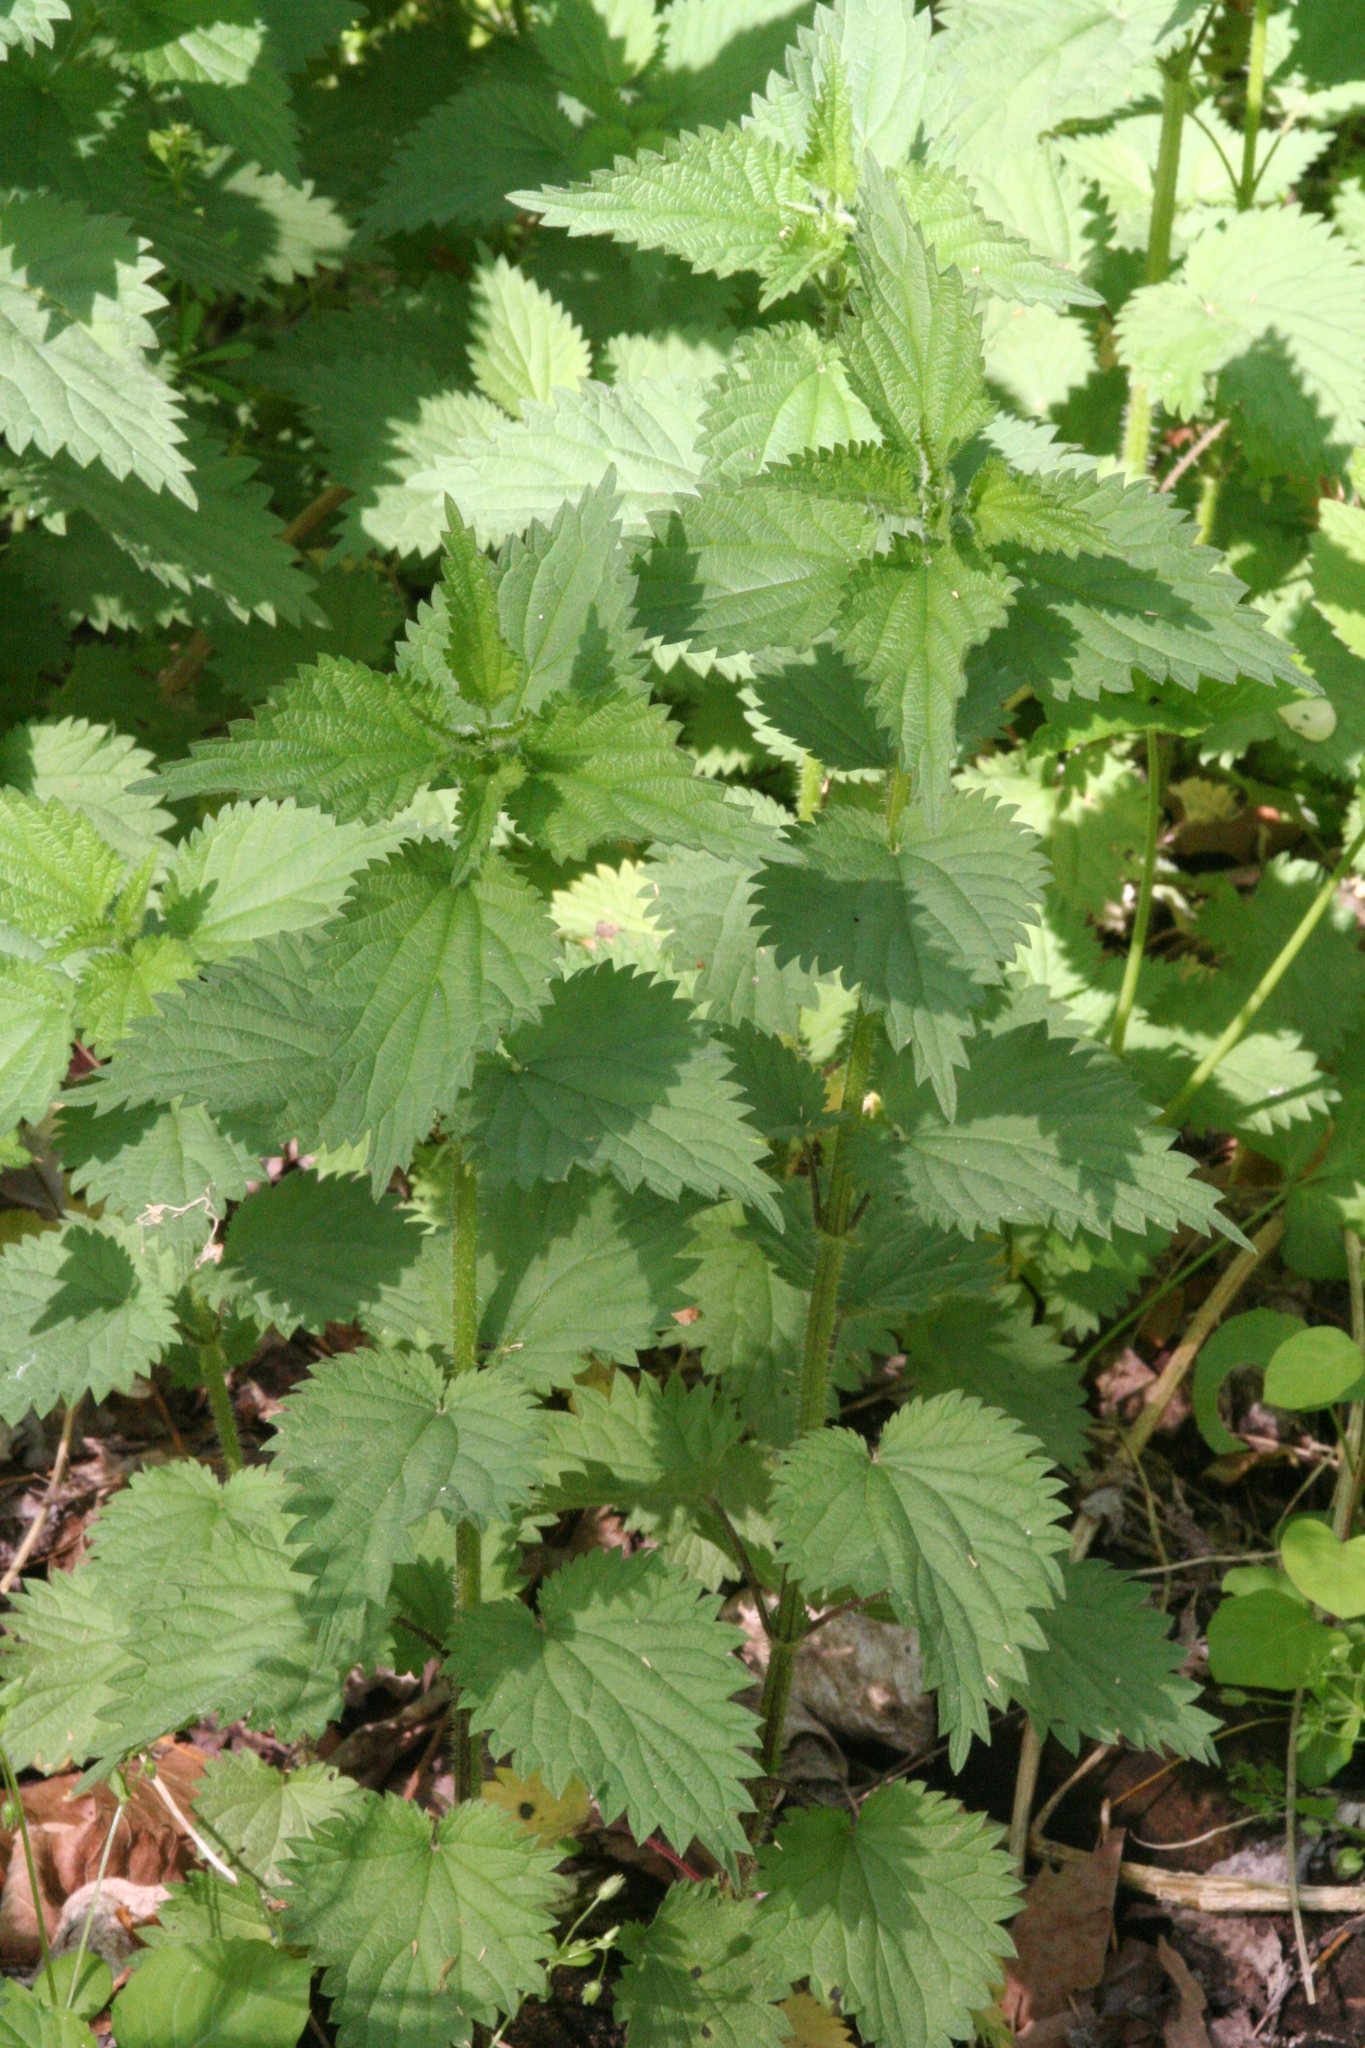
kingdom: Plantae
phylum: Tracheophyta
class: Magnoliopsida
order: Rosales
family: Urticaceae
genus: Urtica
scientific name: Urtica dioica
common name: Common nettle
